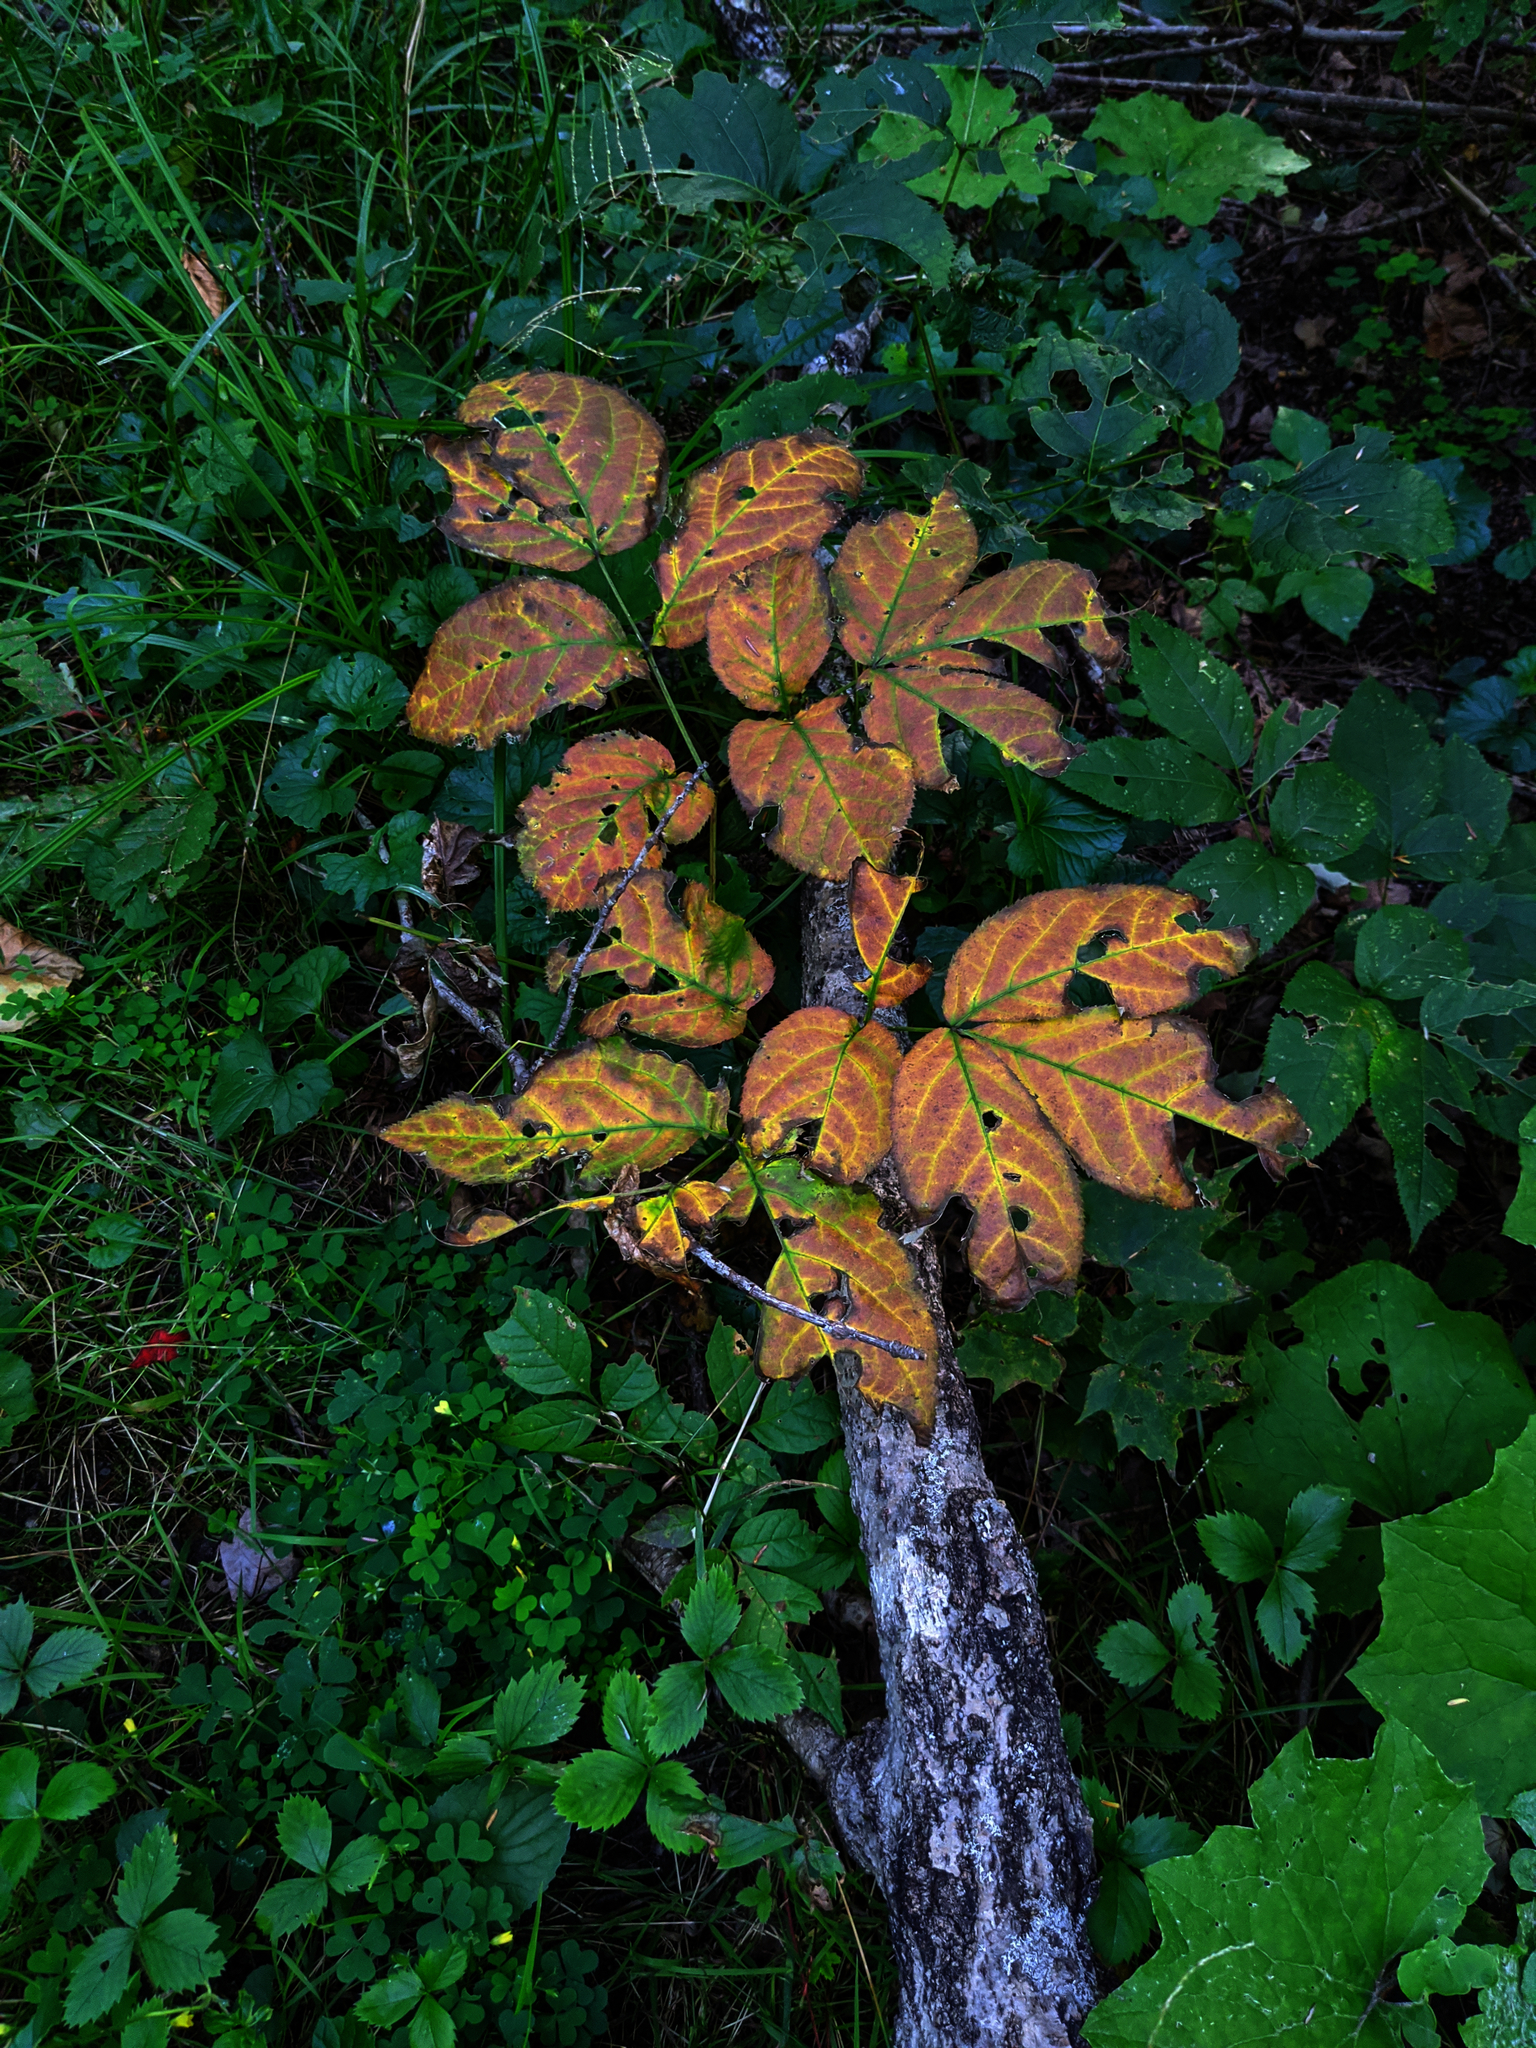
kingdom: Plantae
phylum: Tracheophyta
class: Magnoliopsida
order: Apiales
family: Araliaceae
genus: Aralia
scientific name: Aralia nudicaulis
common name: Wild sarsaparilla
